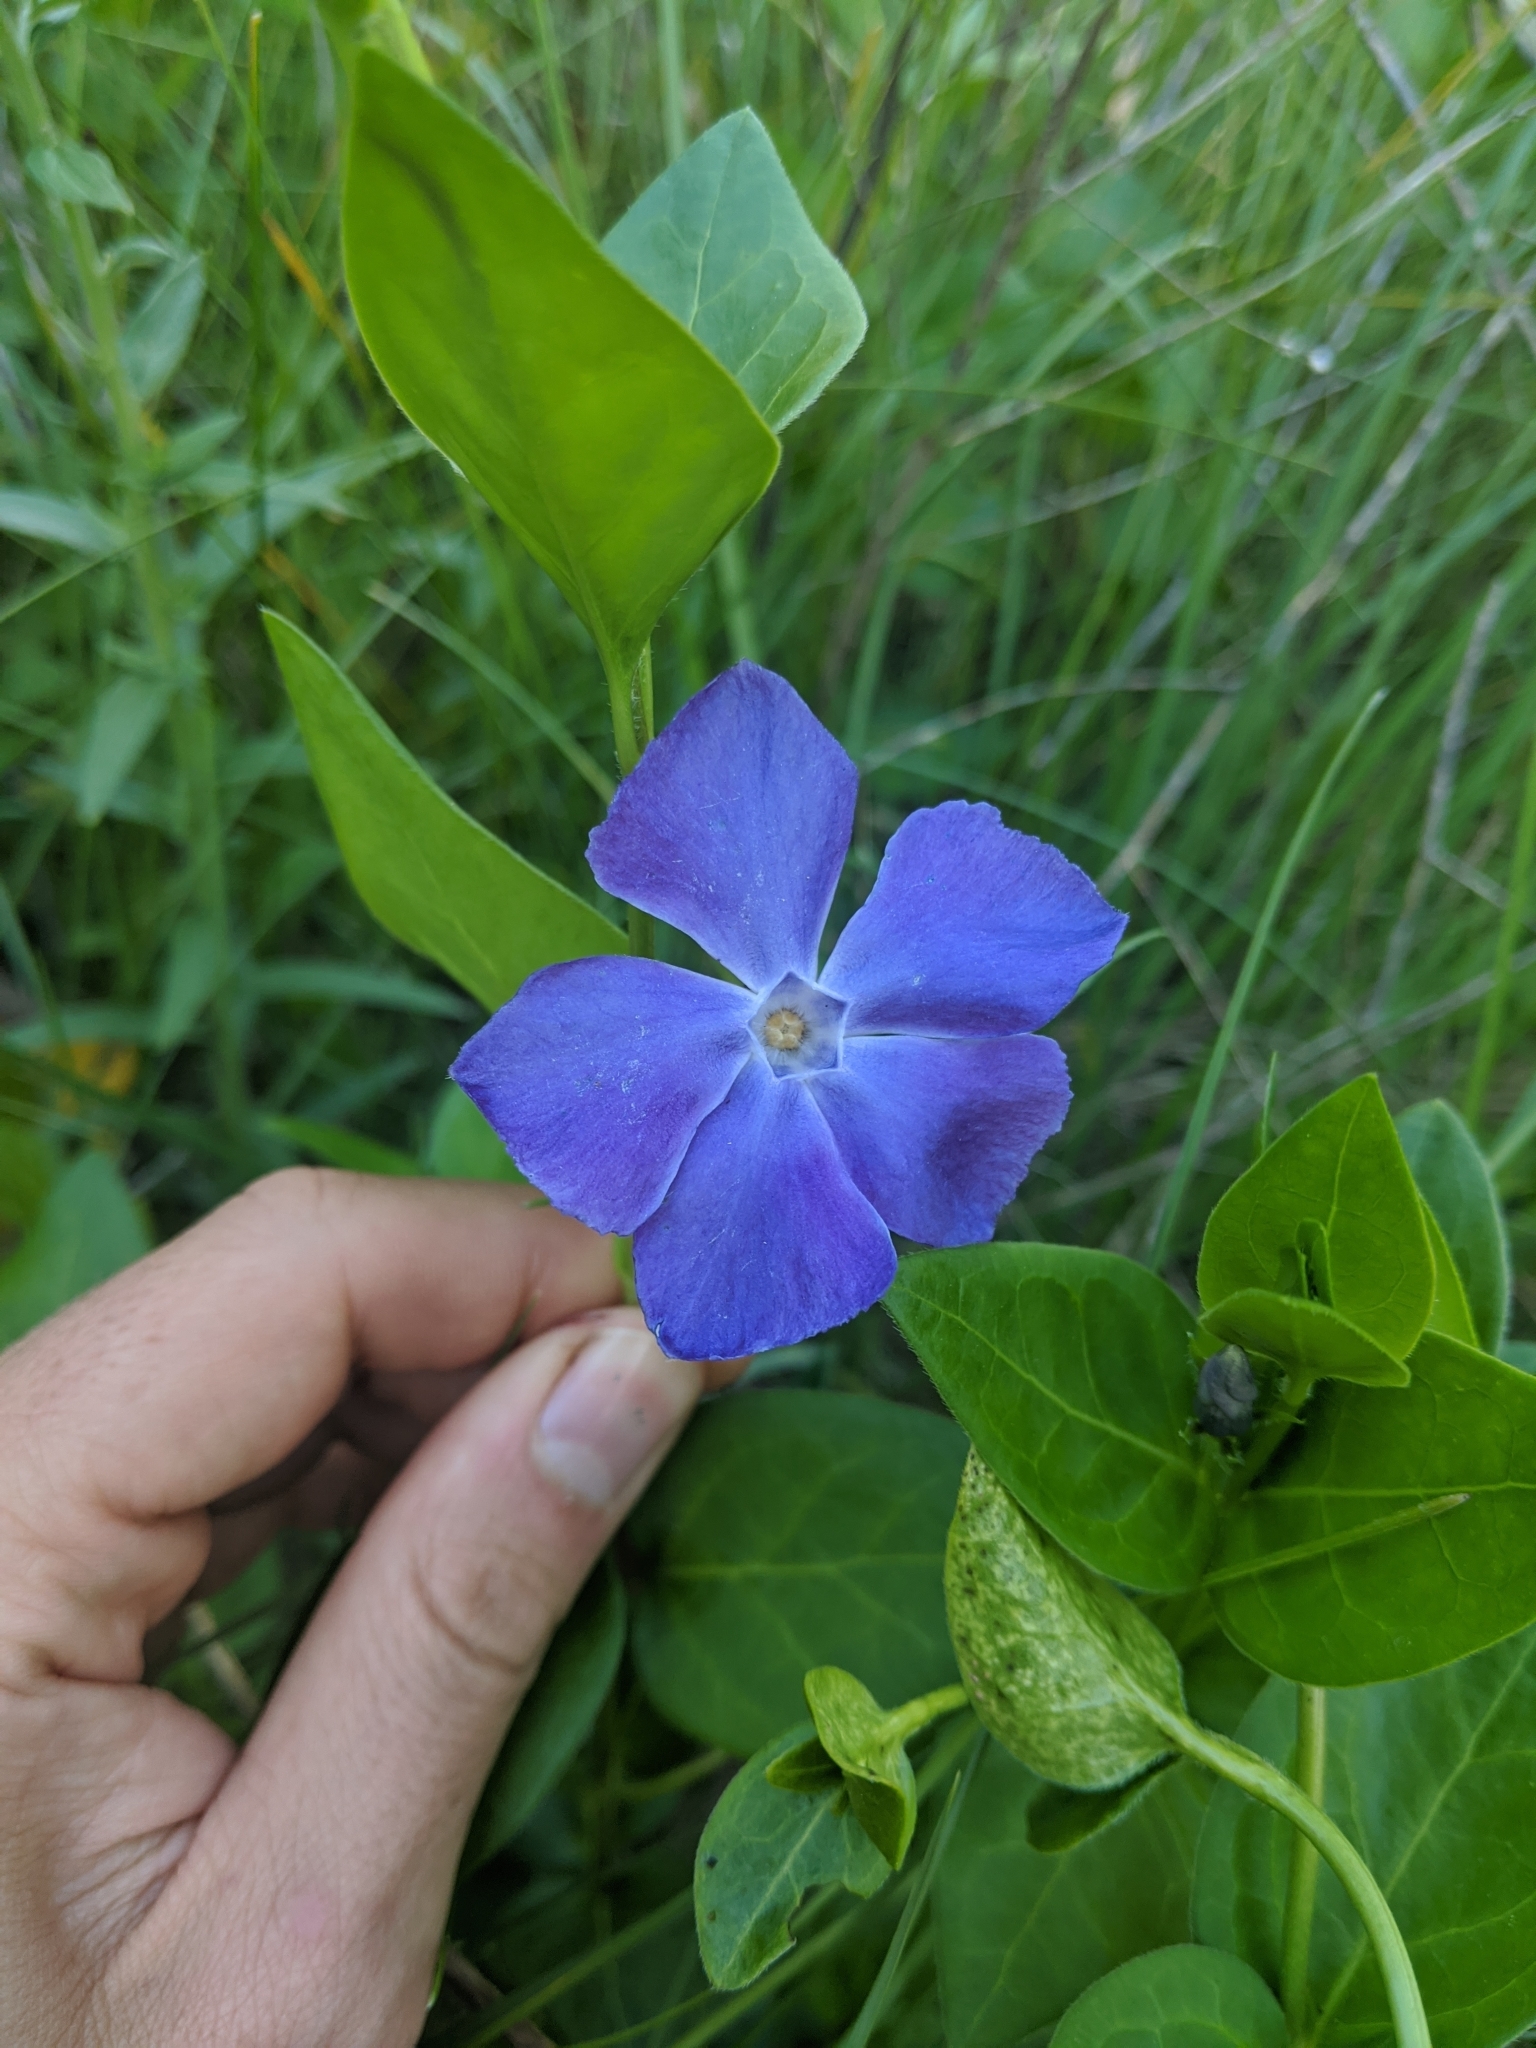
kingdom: Plantae
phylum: Tracheophyta
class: Magnoliopsida
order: Gentianales
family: Apocynaceae
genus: Vinca
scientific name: Vinca major
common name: Greater periwinkle
